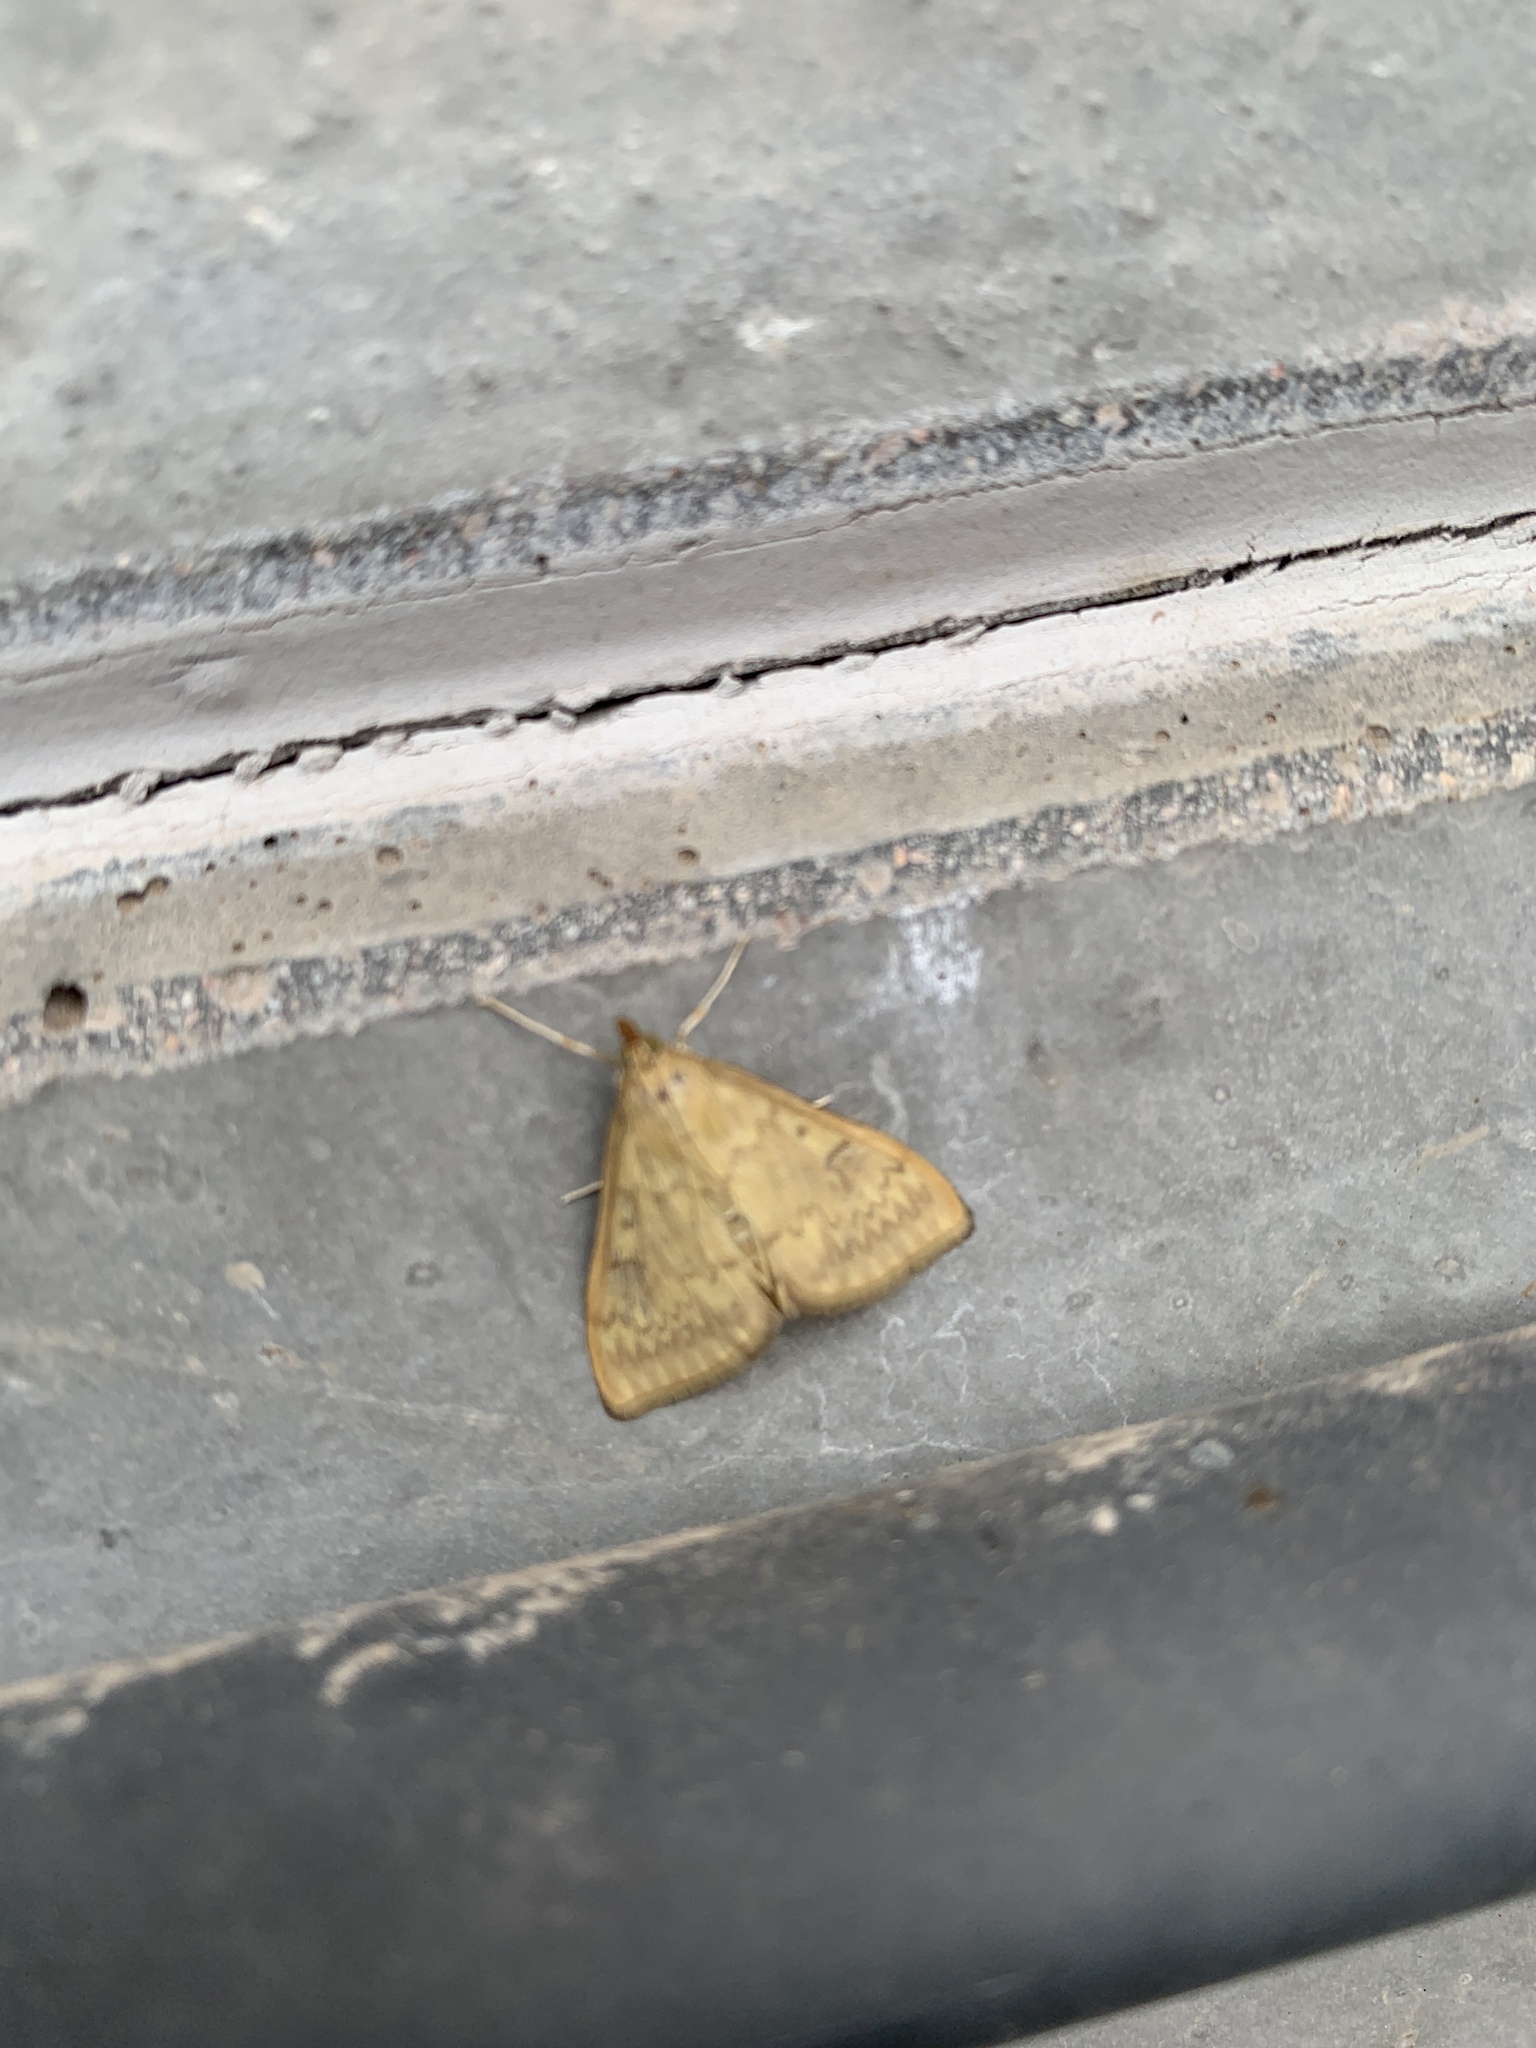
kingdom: Animalia
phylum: Arthropoda
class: Insecta
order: Lepidoptera
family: Crambidae
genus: Ostrinia
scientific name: Ostrinia nubilalis
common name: European corn borer
